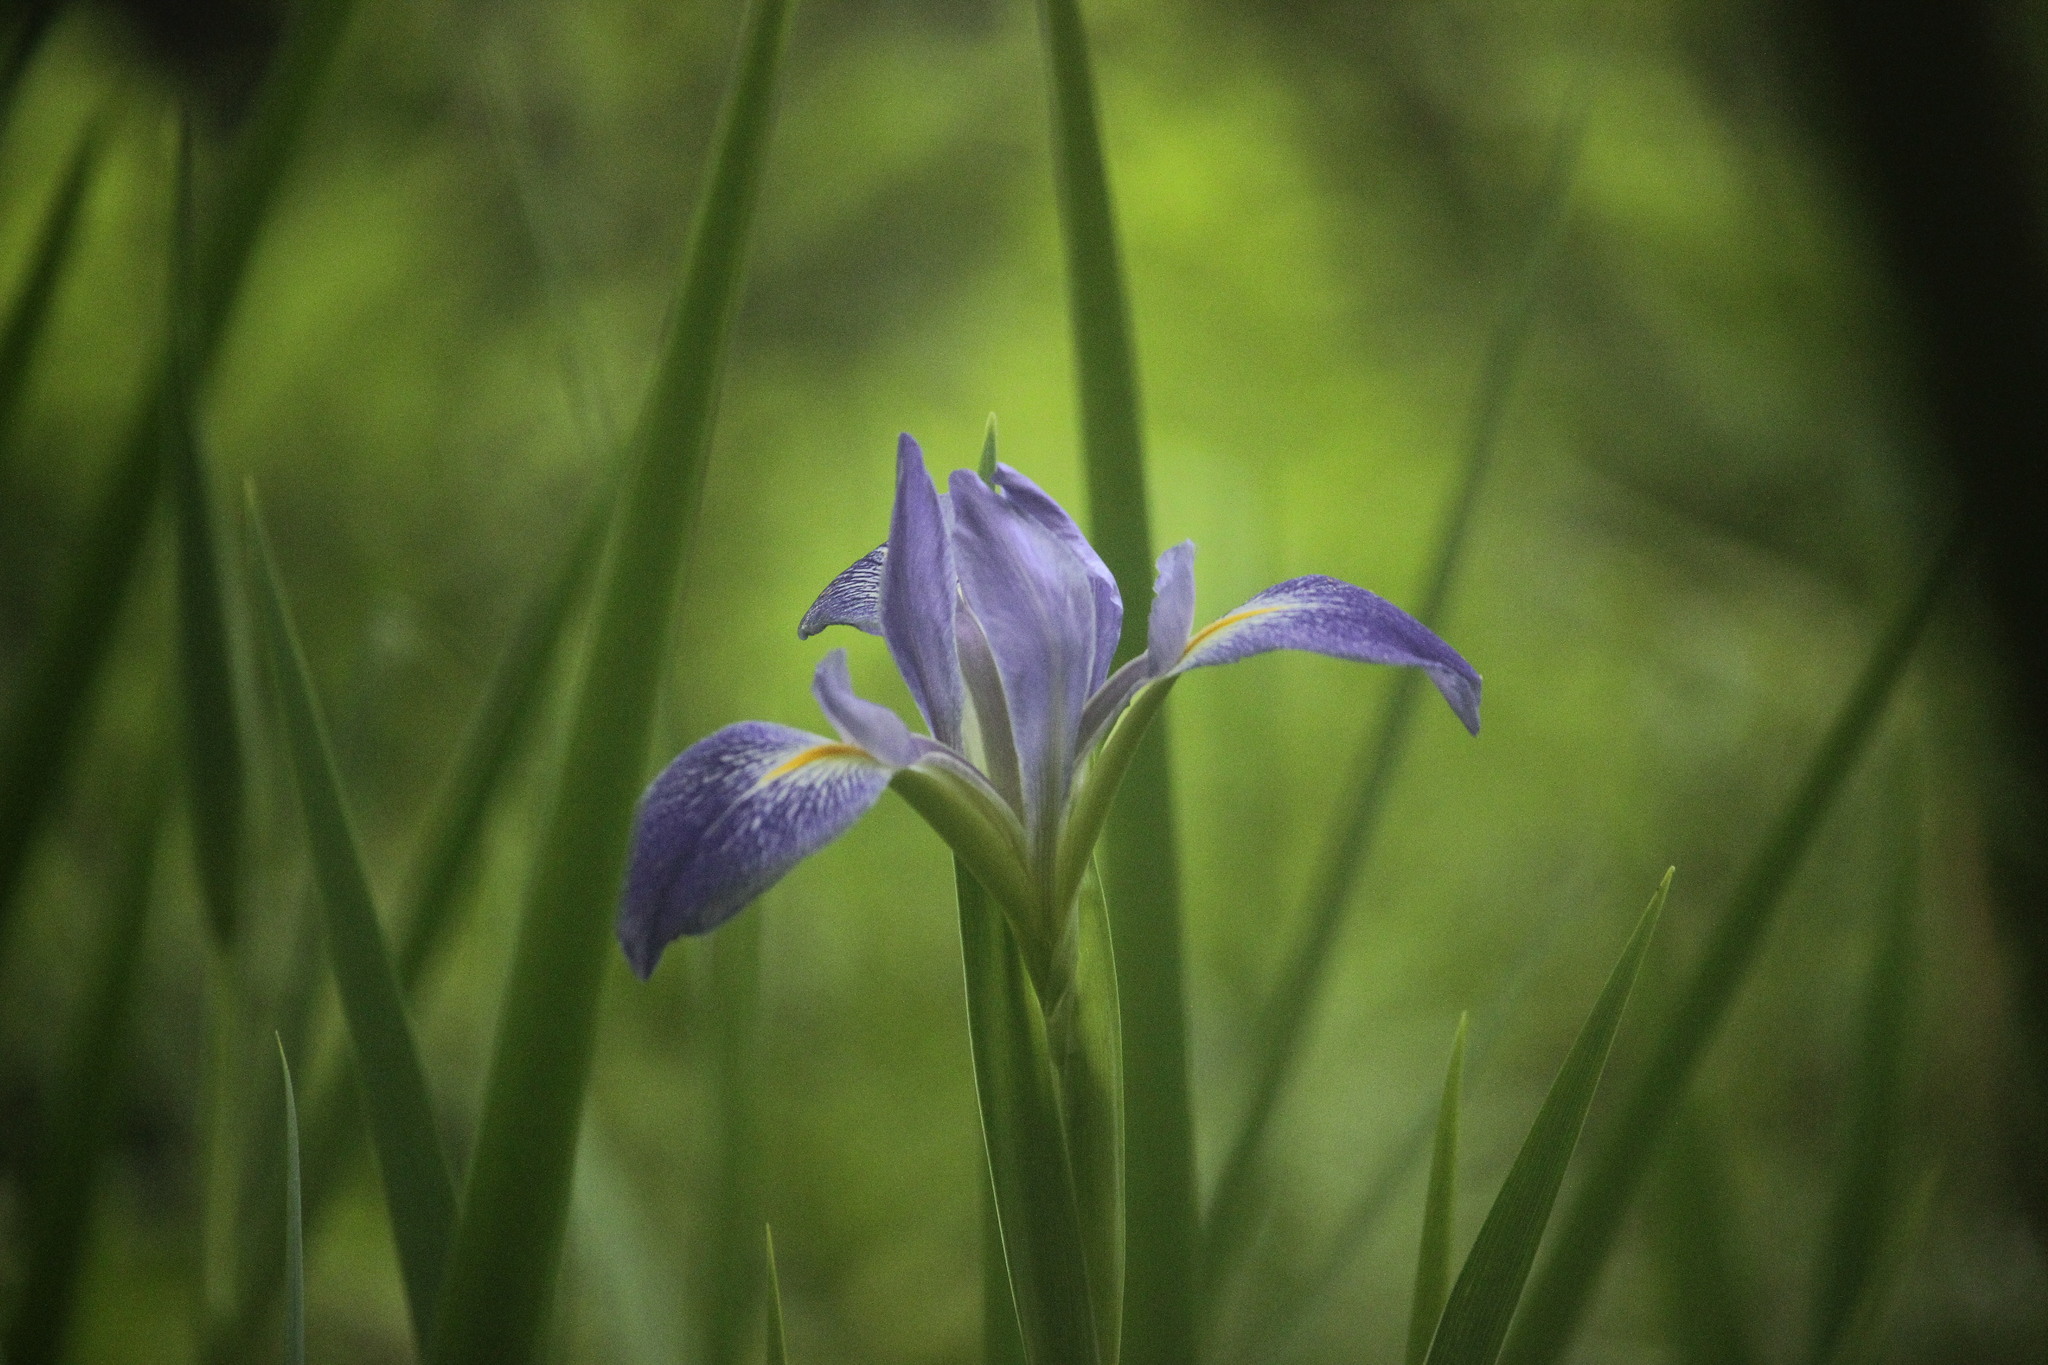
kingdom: Plantae
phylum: Tracheophyta
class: Liliopsida
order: Asparagales
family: Iridaceae
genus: Iris
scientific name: Iris savannarum
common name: Prairie iris
